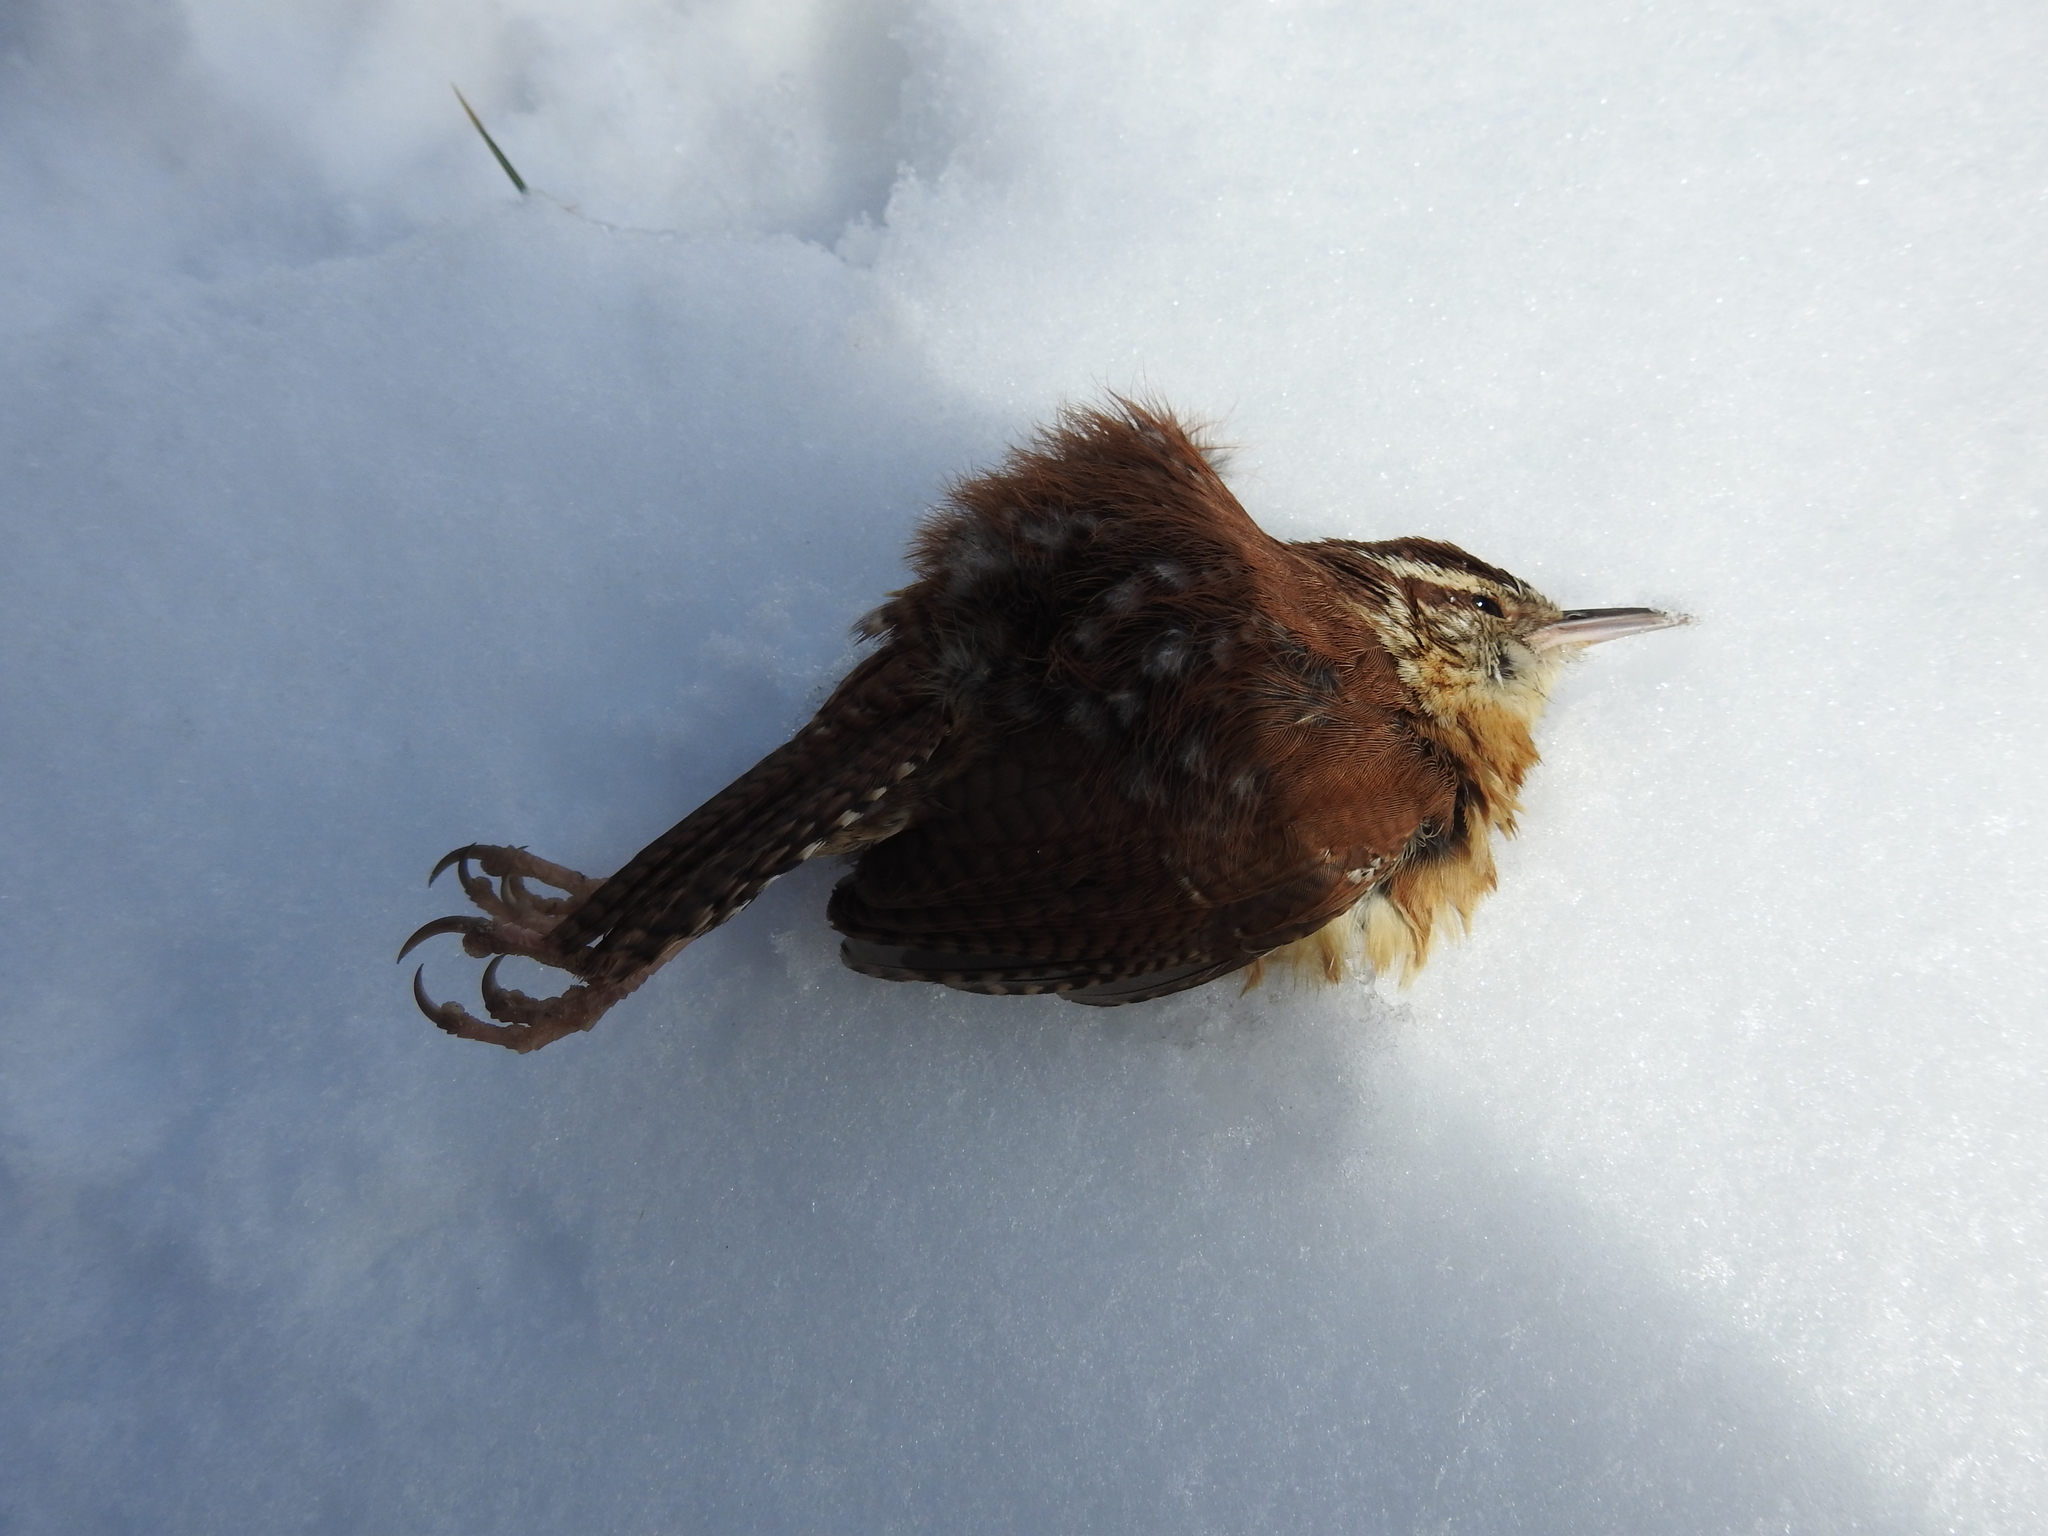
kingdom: Animalia
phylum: Chordata
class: Aves
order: Passeriformes
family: Troglodytidae
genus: Thryothorus
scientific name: Thryothorus ludovicianus
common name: Carolina wren
